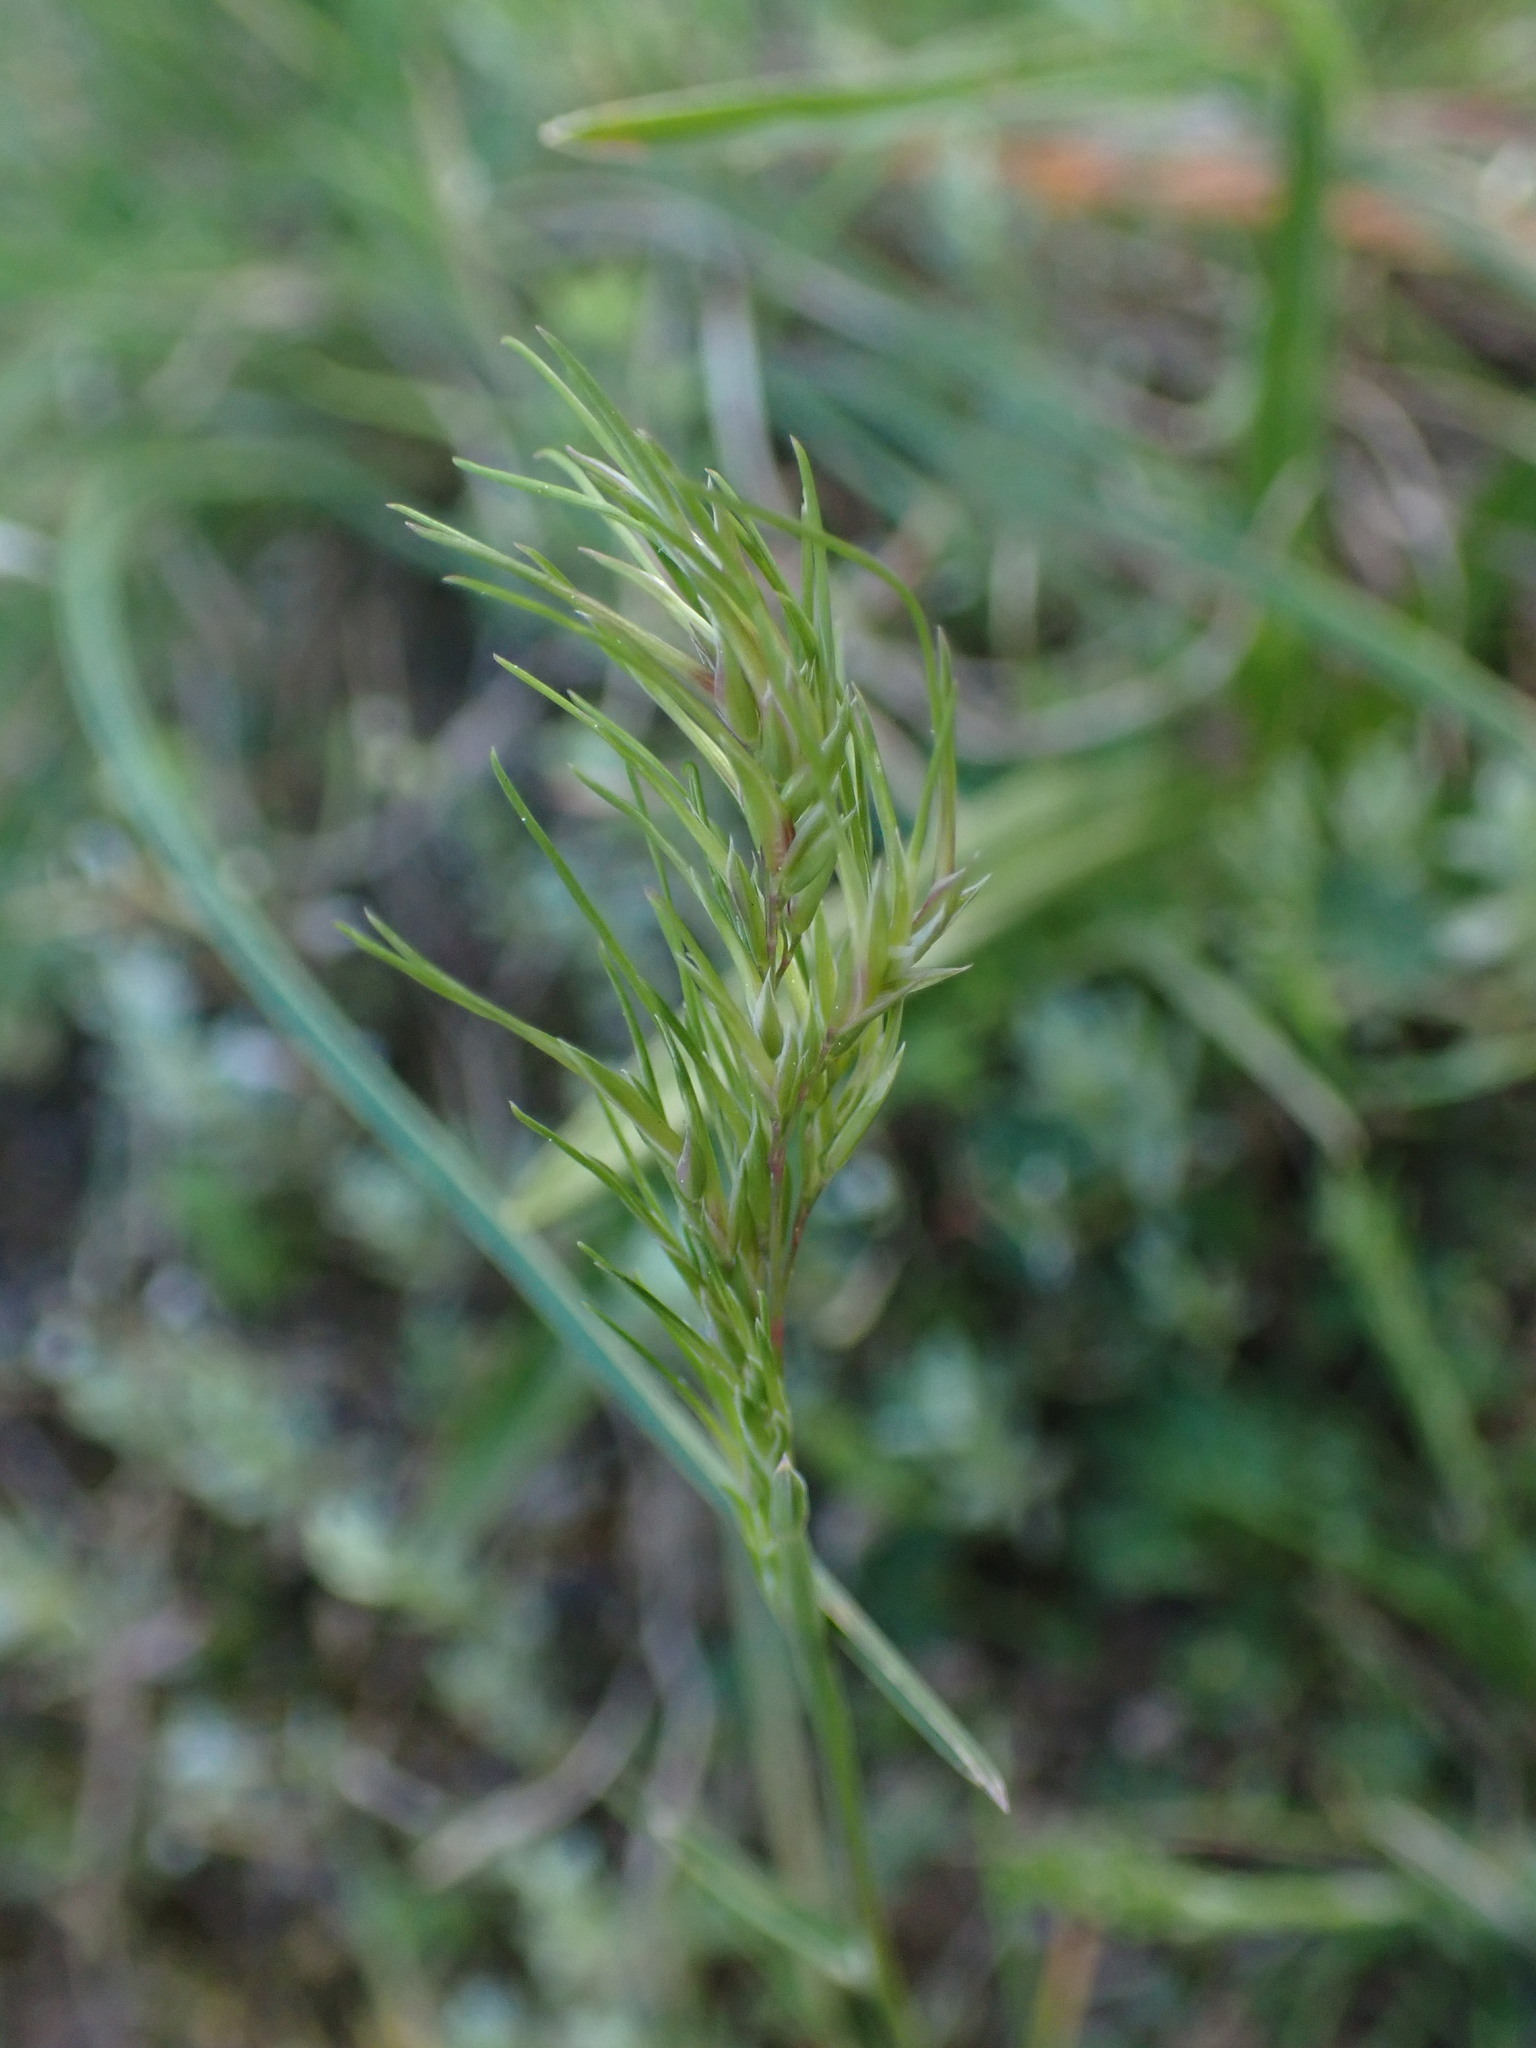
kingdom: Plantae
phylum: Tracheophyta
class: Liliopsida
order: Poales
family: Poaceae
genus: Poa
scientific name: Poa bulbosa
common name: Bulbous bluegrass
